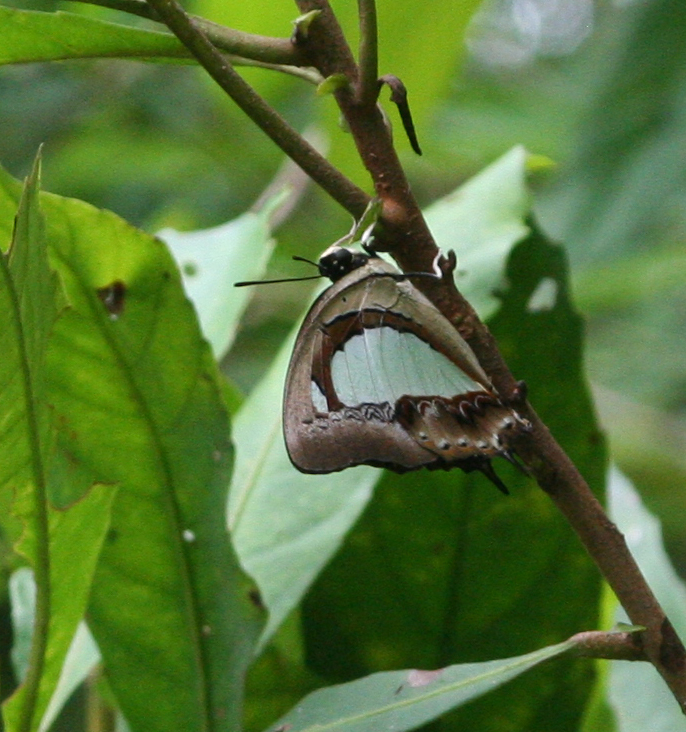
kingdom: Animalia
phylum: Arthropoda
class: Insecta
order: Lepidoptera
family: Nymphalidae
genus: Polyura
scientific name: Polyura arja
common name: Pallid nawab
